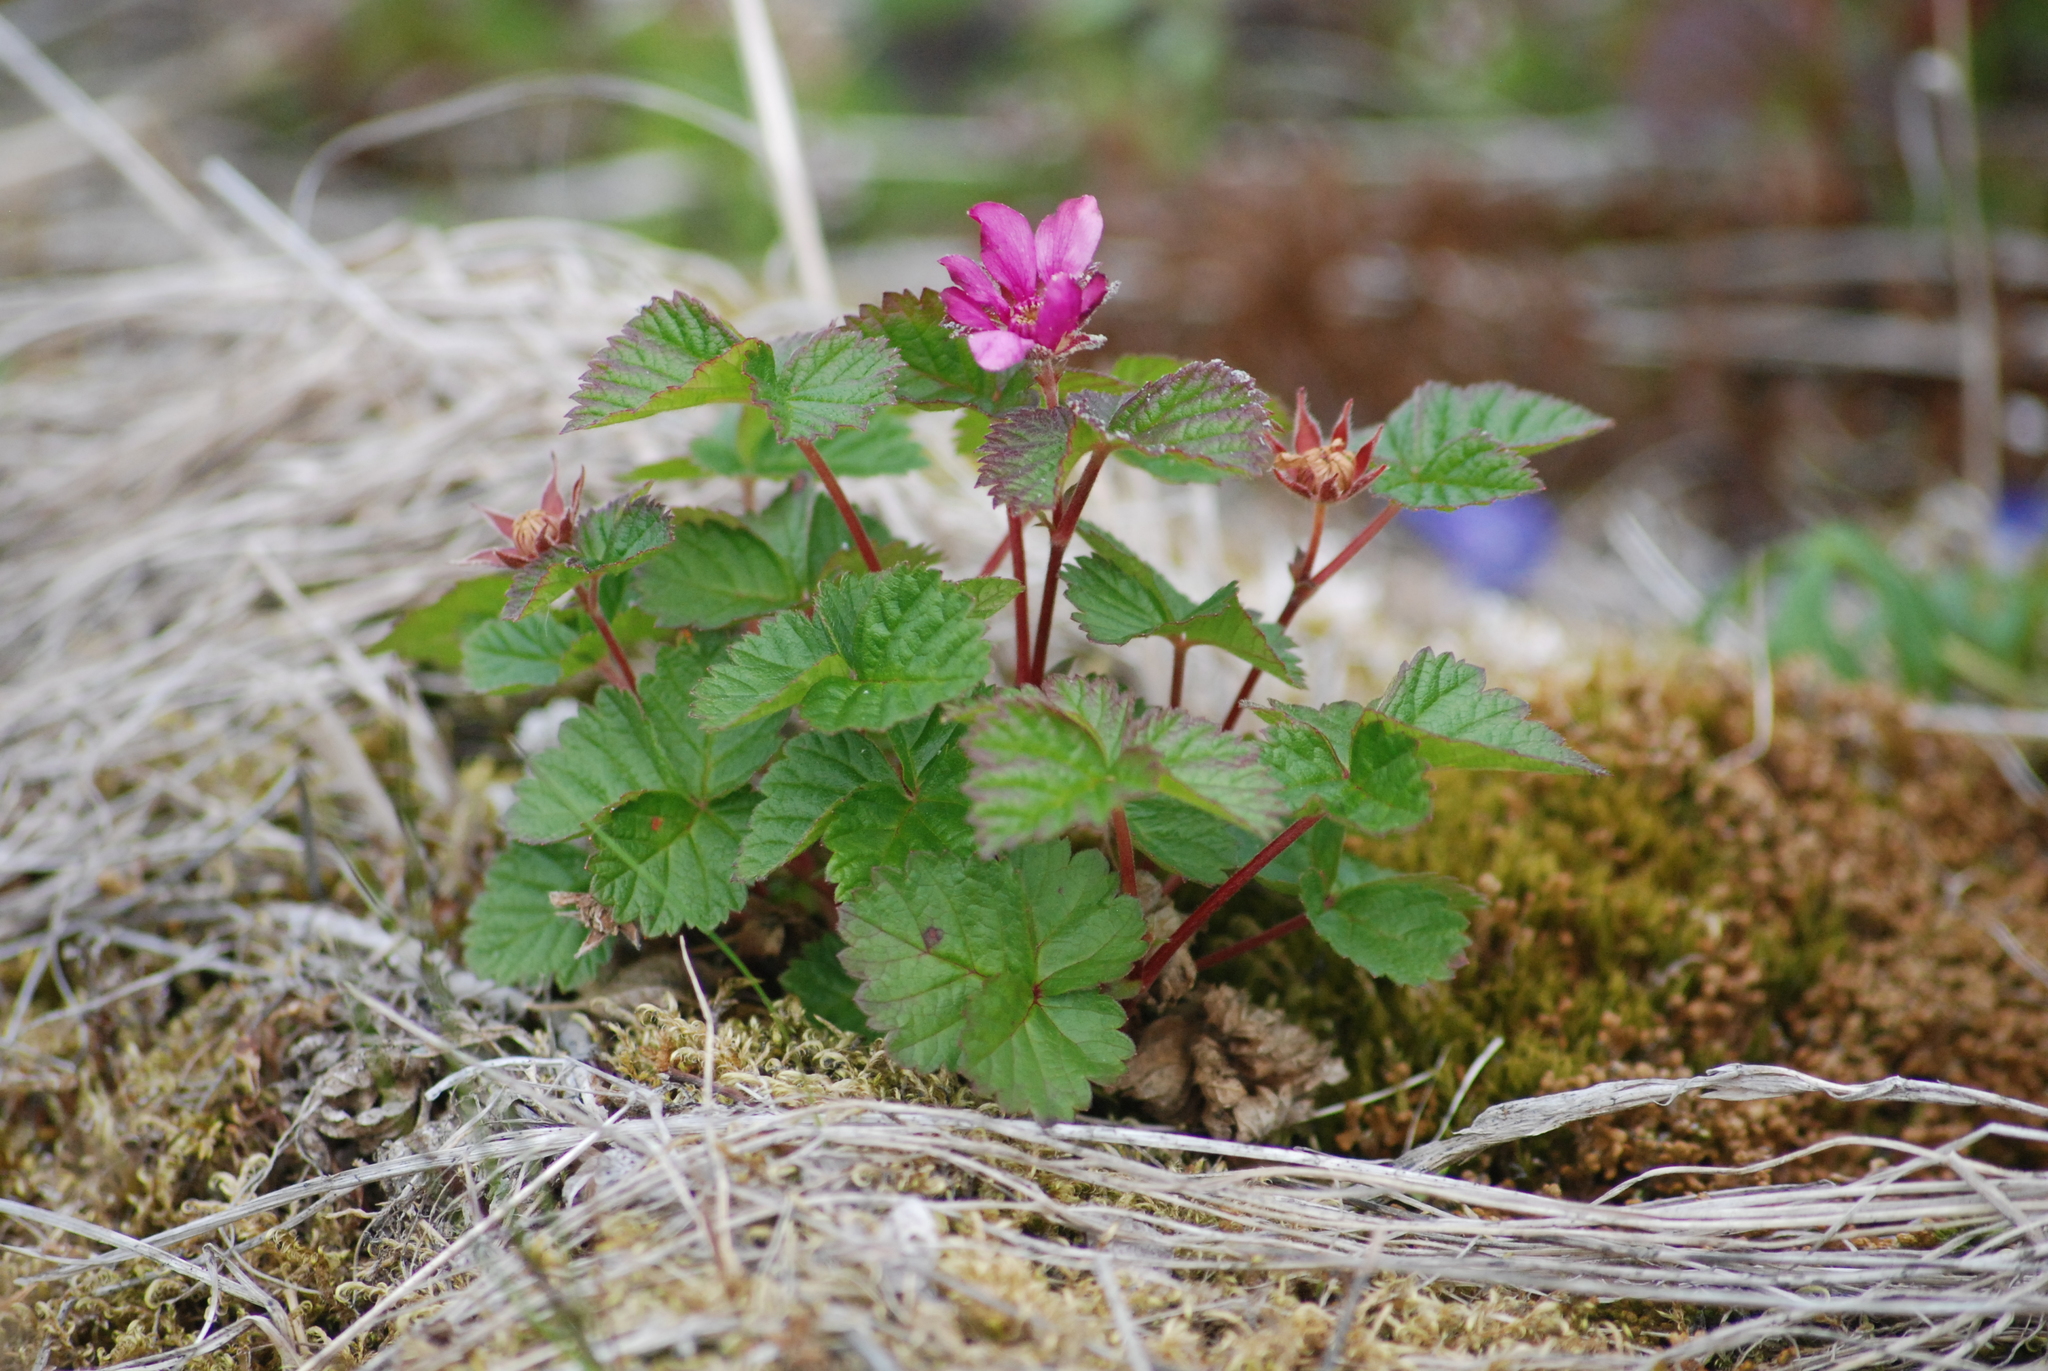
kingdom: Plantae
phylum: Tracheophyta
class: Magnoliopsida
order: Rosales
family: Rosaceae
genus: Rubus
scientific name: Rubus arcticus
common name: Arctic bramble
